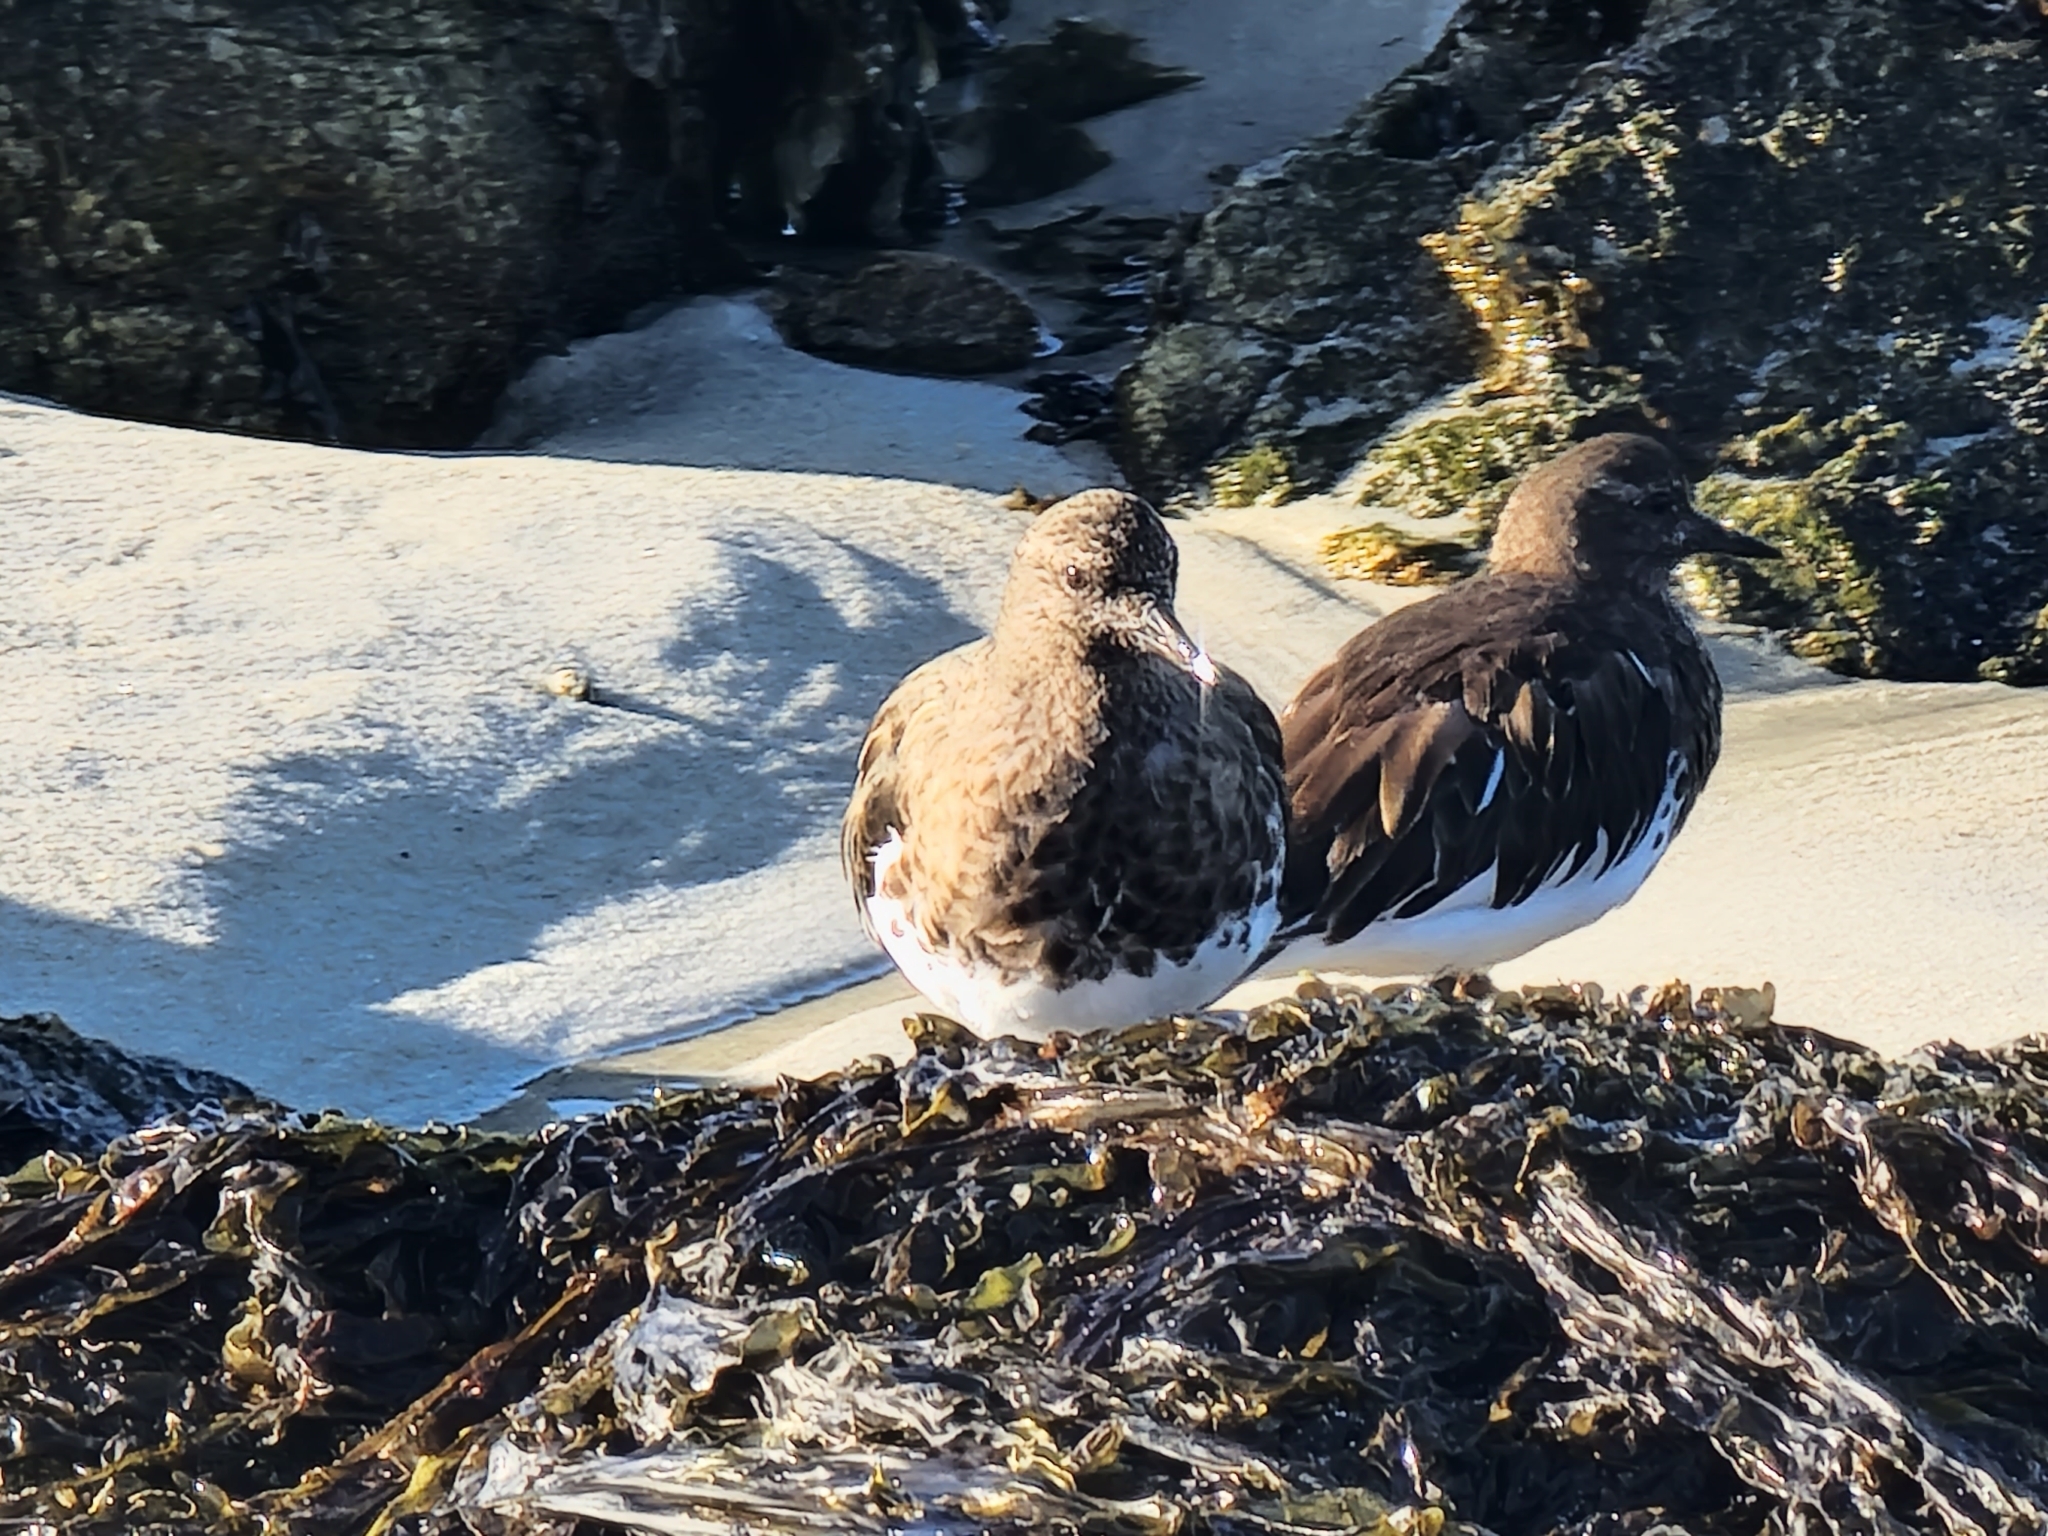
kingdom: Animalia
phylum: Chordata
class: Aves
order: Charadriiformes
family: Scolopacidae
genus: Arenaria
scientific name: Arenaria melanocephala
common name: Black turnstone
